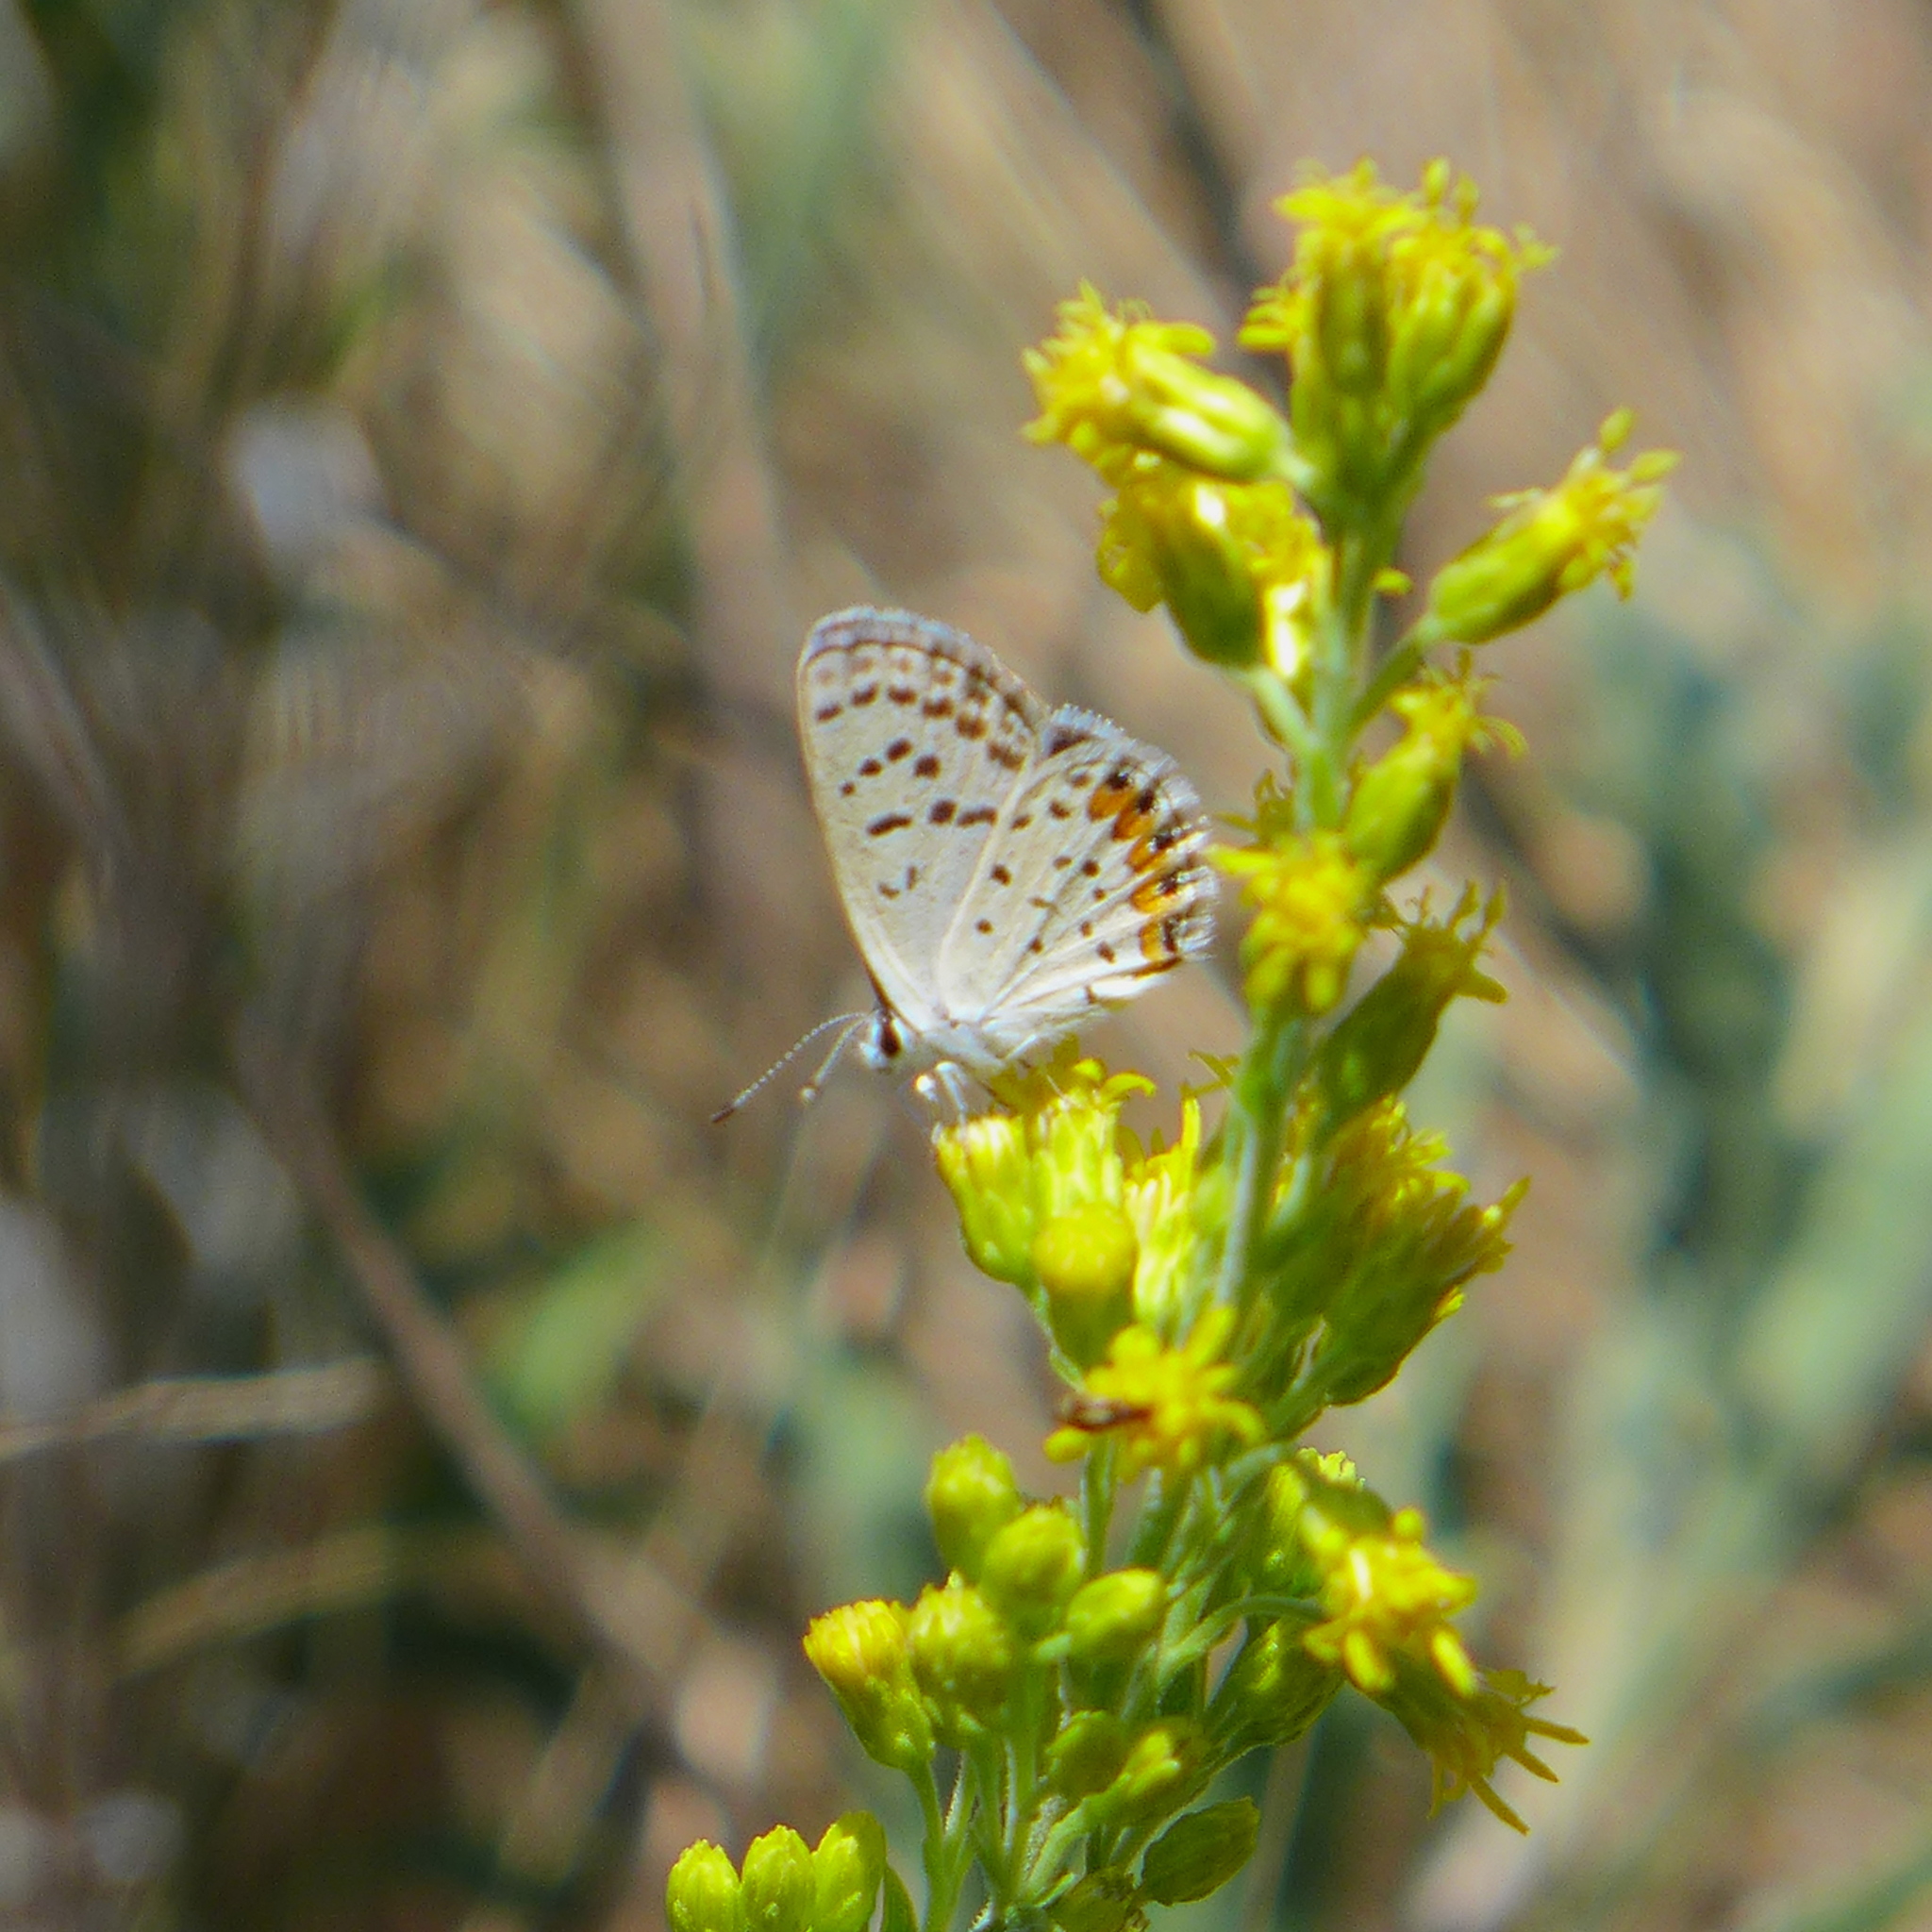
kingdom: Animalia
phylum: Arthropoda
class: Insecta
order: Lepidoptera
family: Lycaenidae
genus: Icaricia
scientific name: Icaricia acmon
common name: Acmon blue
